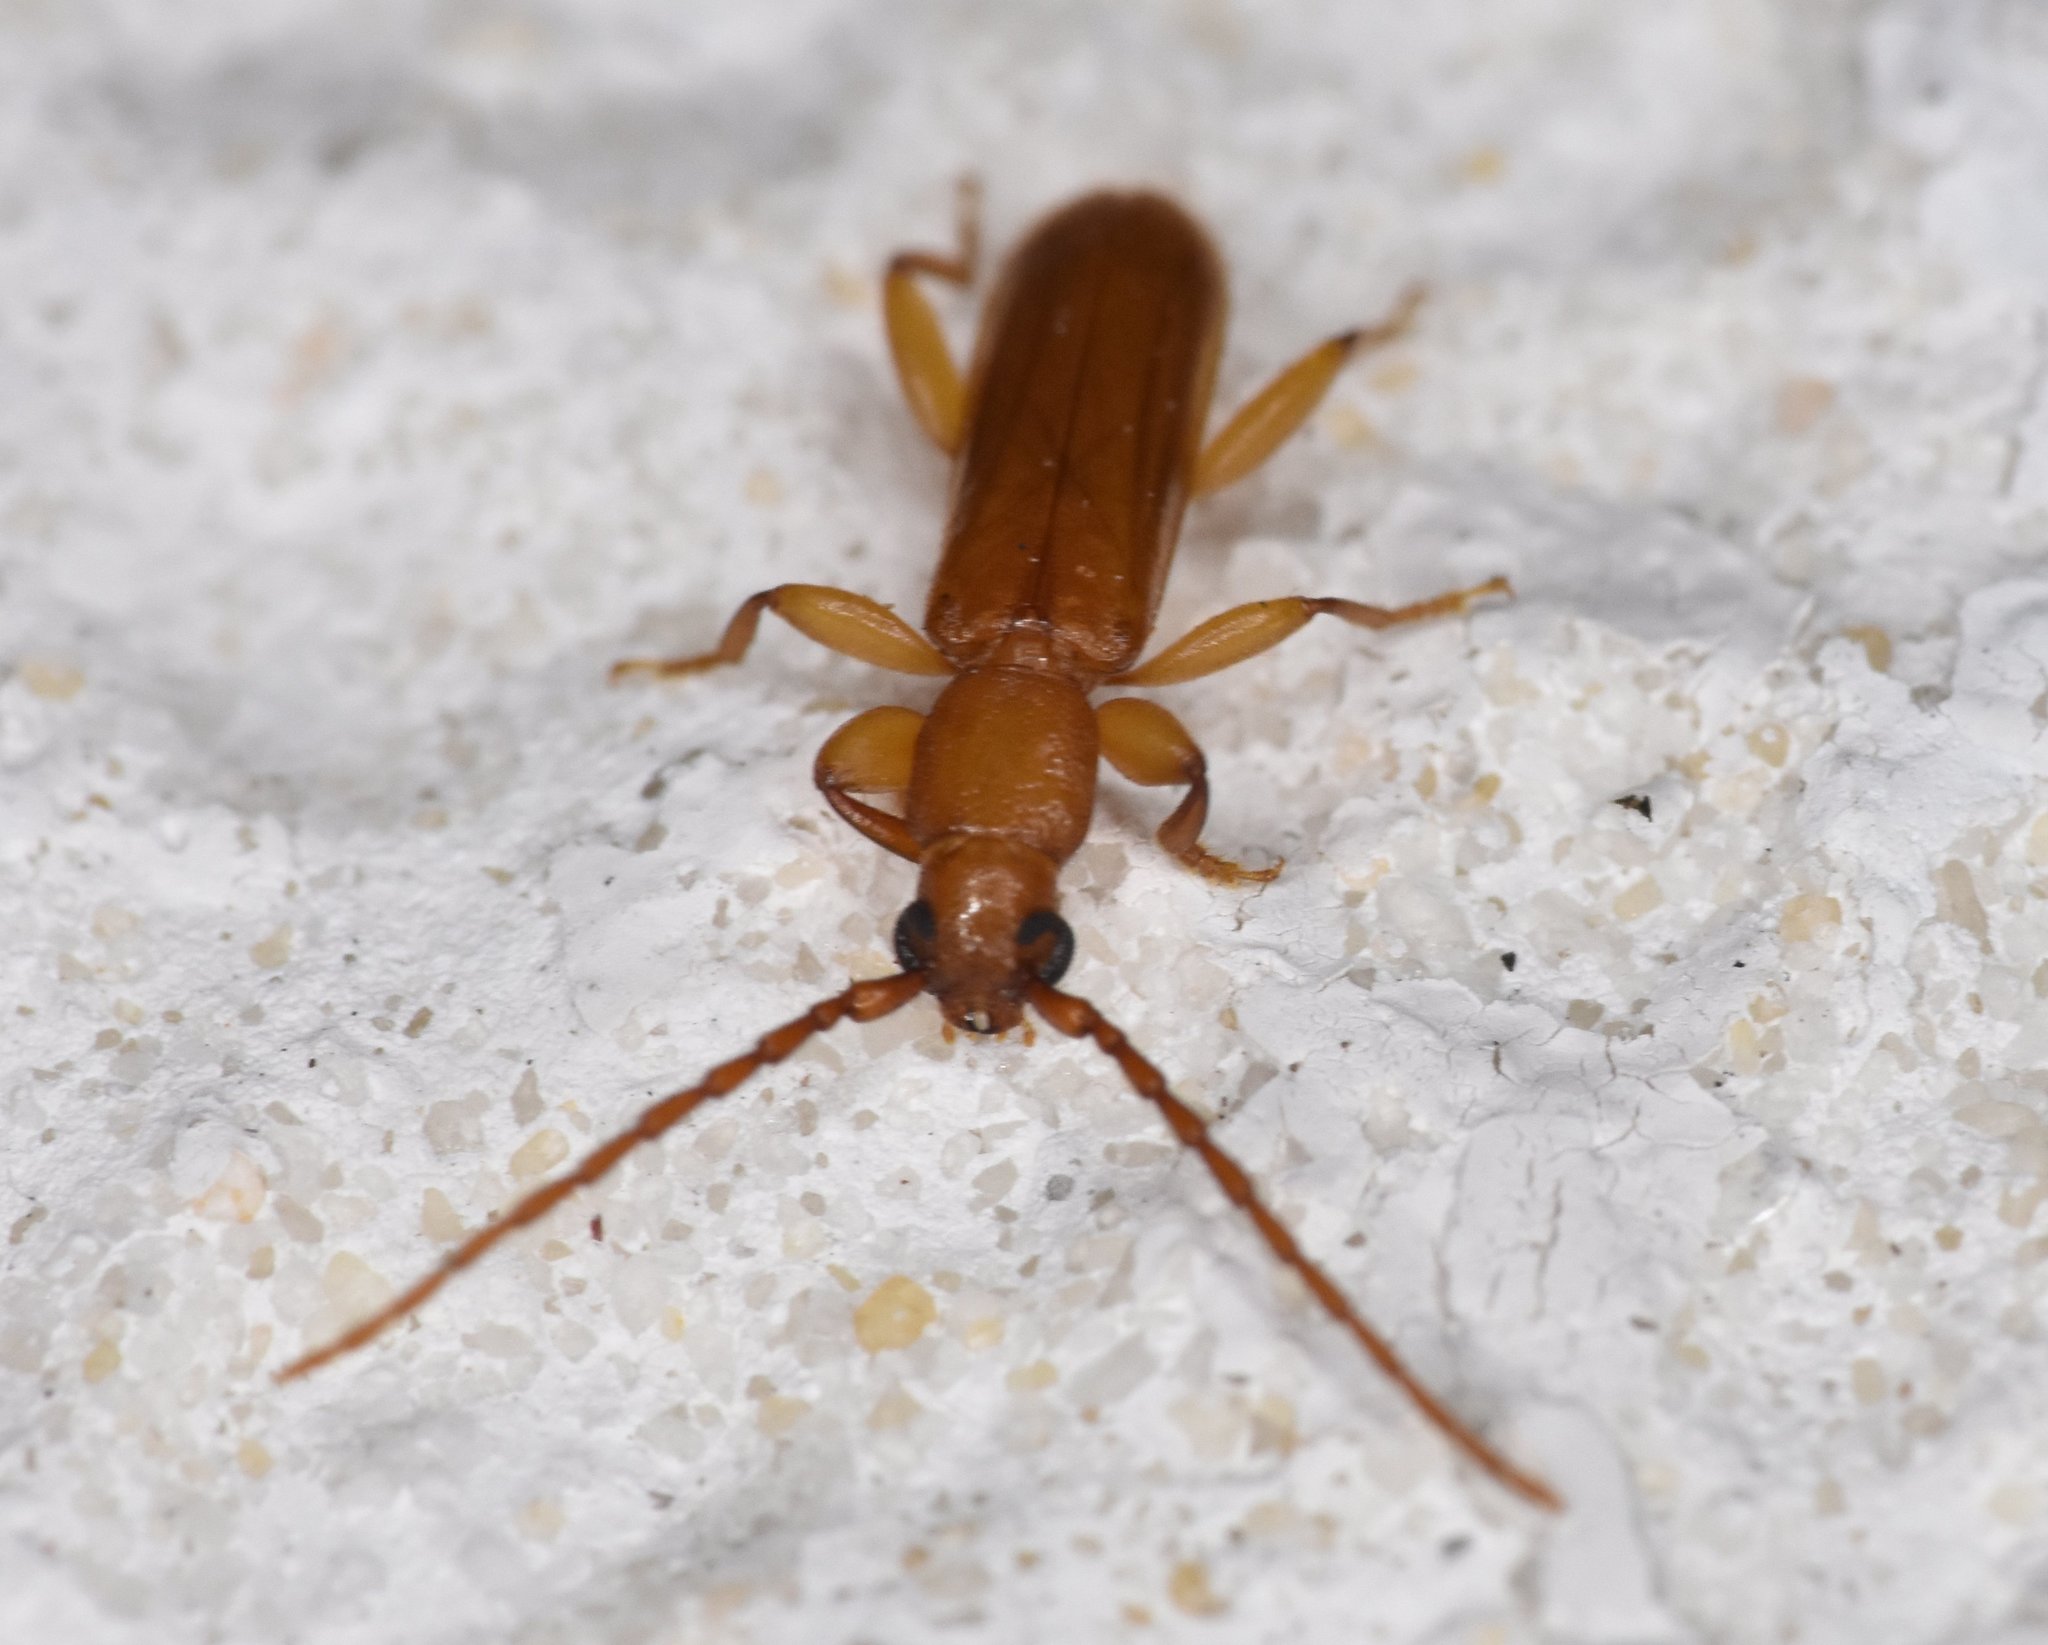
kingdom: Animalia
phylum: Arthropoda
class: Insecta
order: Coleoptera
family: Cerambycidae
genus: Smodicum
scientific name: Smodicum cucujiforme
